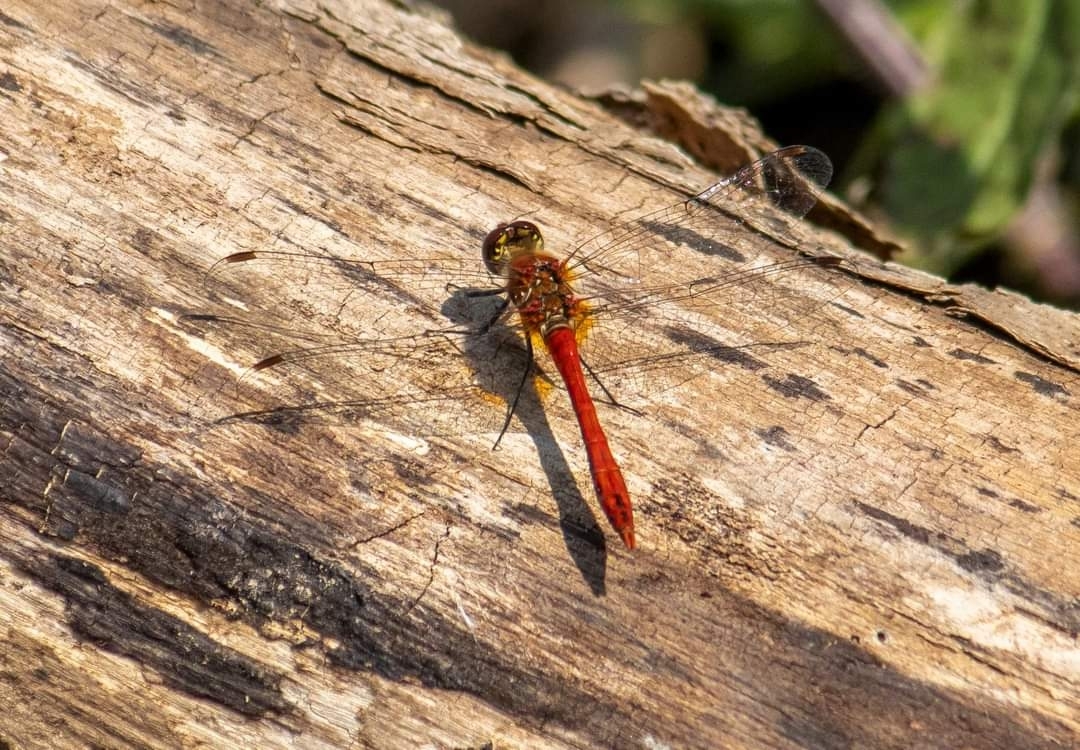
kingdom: Animalia
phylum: Arthropoda
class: Insecta
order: Odonata
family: Libellulidae
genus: Sympetrum
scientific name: Sympetrum sanguineum
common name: Ruddy darter
